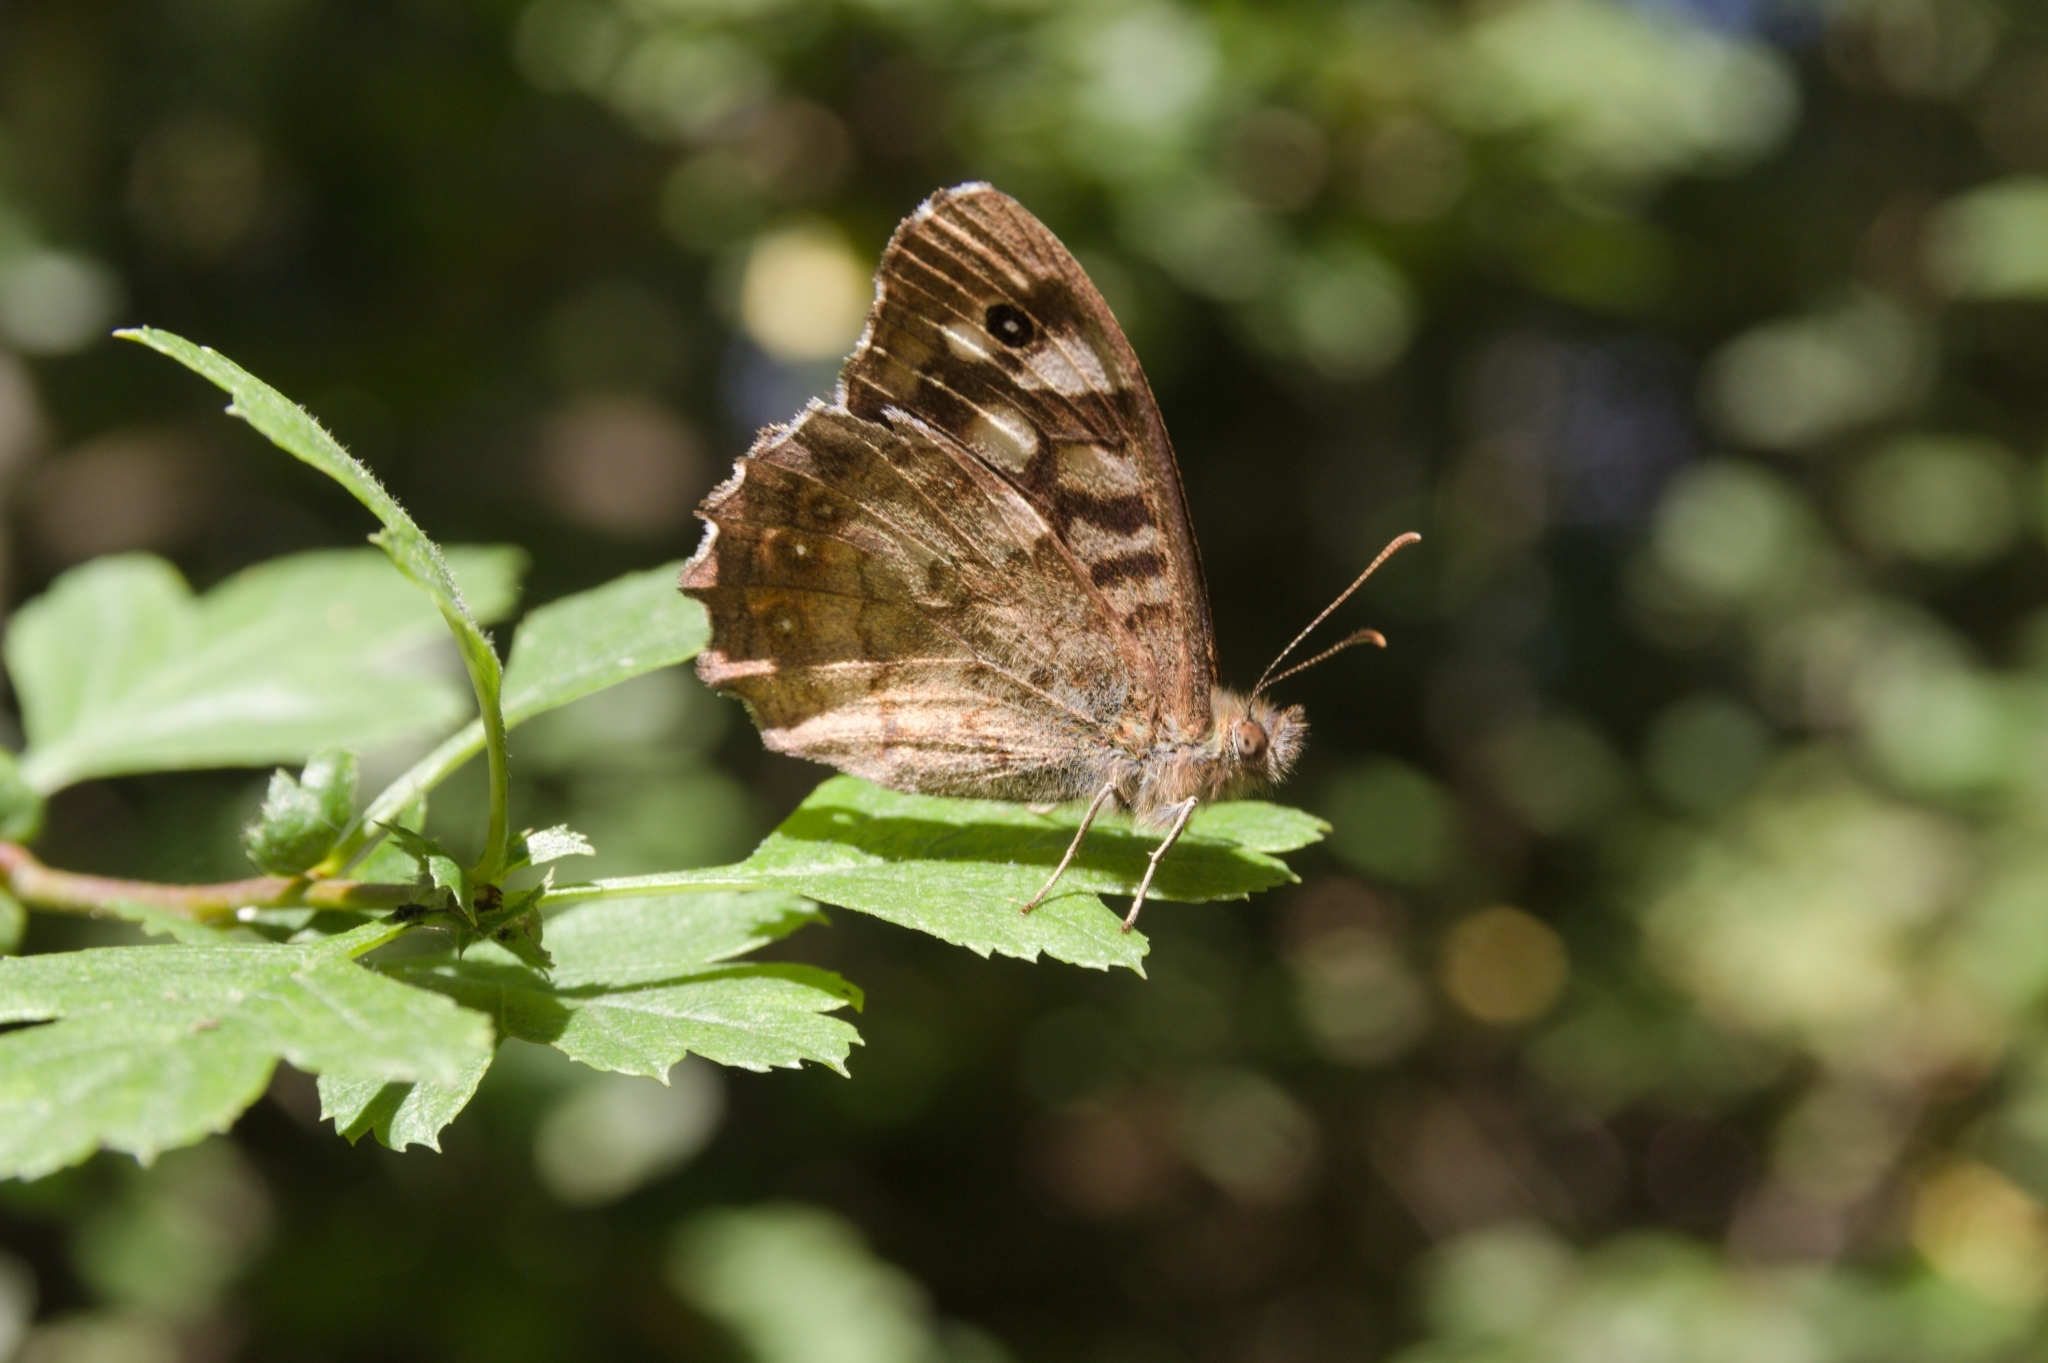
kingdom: Animalia
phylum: Arthropoda
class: Insecta
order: Lepidoptera
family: Nymphalidae
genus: Pararge
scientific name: Pararge aegeria
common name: Speckled wood
